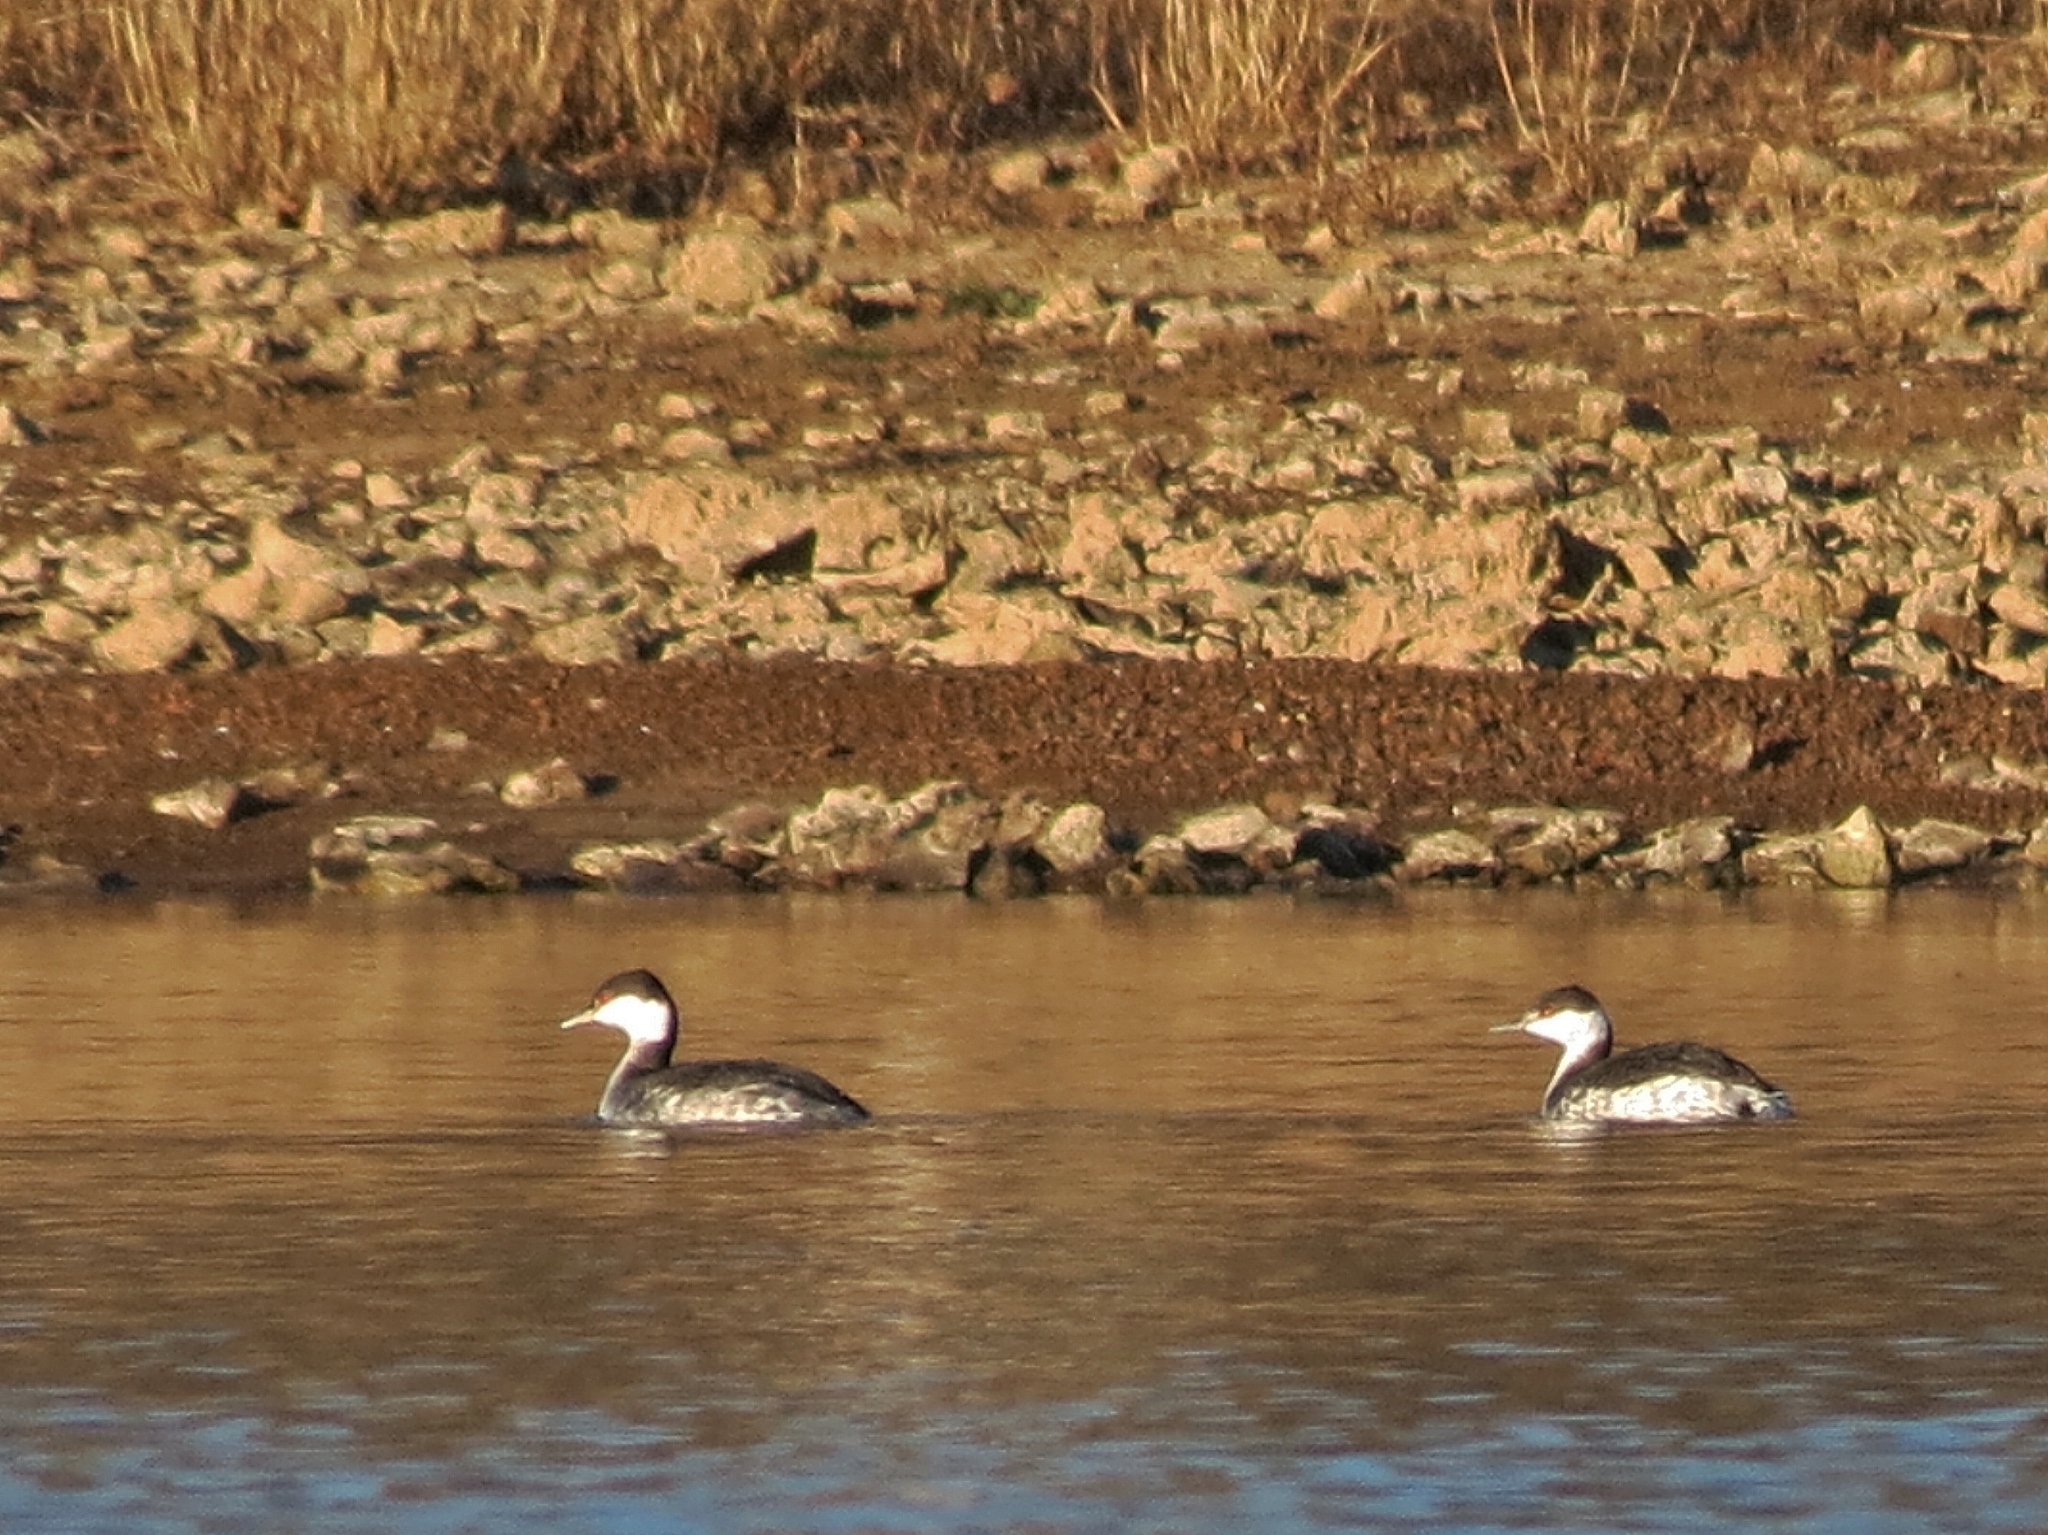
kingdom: Animalia
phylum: Chordata
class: Aves
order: Podicipediformes
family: Podicipedidae
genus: Podiceps
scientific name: Podiceps auritus
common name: Horned grebe
